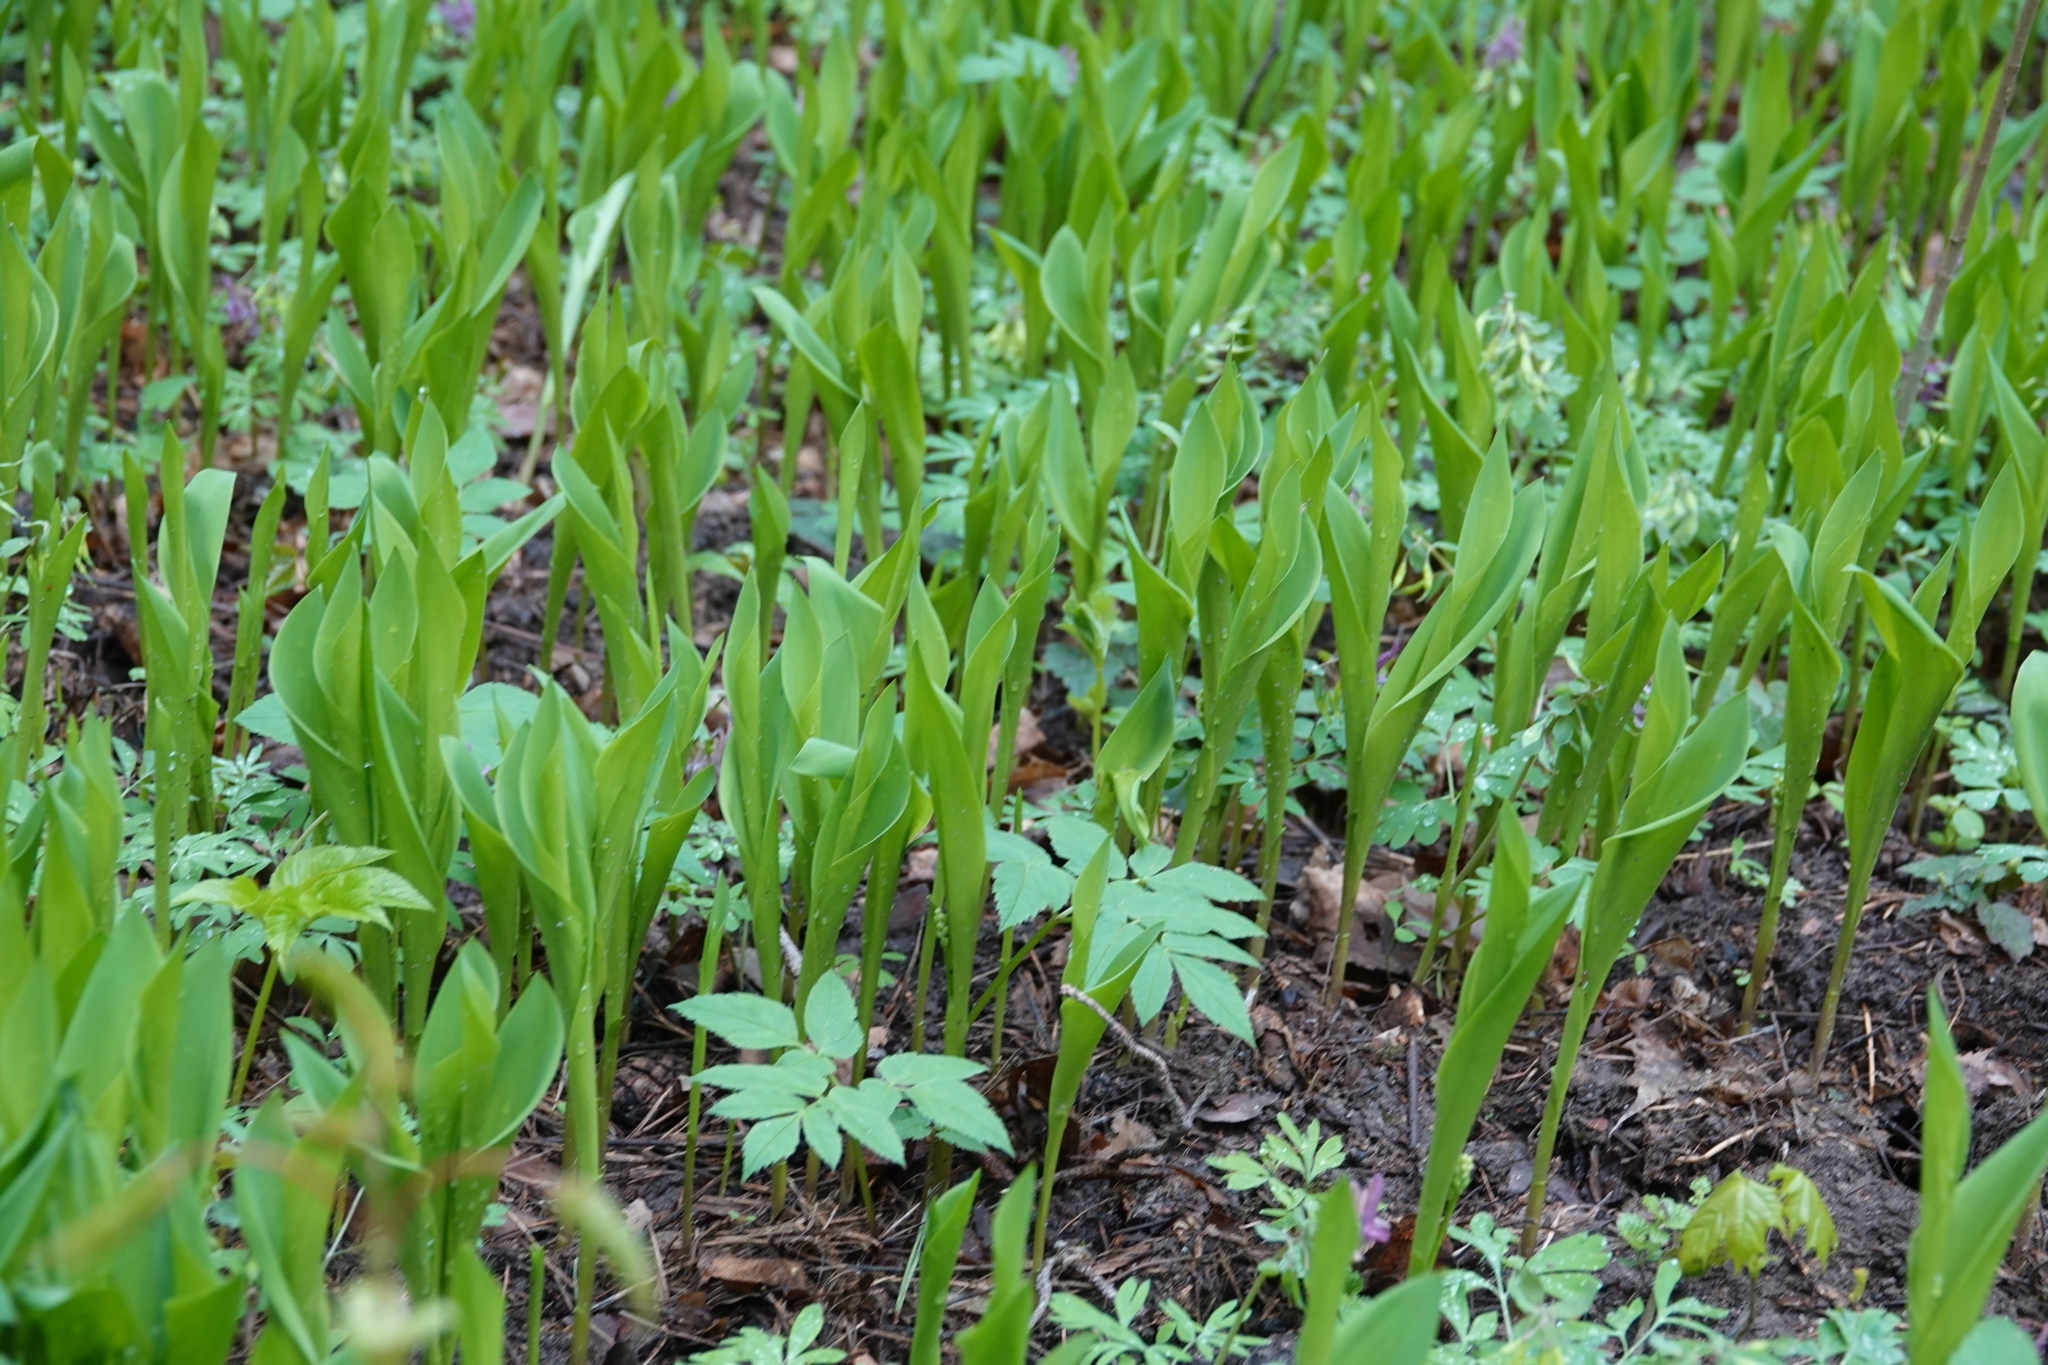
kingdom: Plantae
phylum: Tracheophyta
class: Liliopsida
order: Asparagales
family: Asparagaceae
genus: Convallaria
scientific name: Convallaria majalis
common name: Lily-of-the-valley
